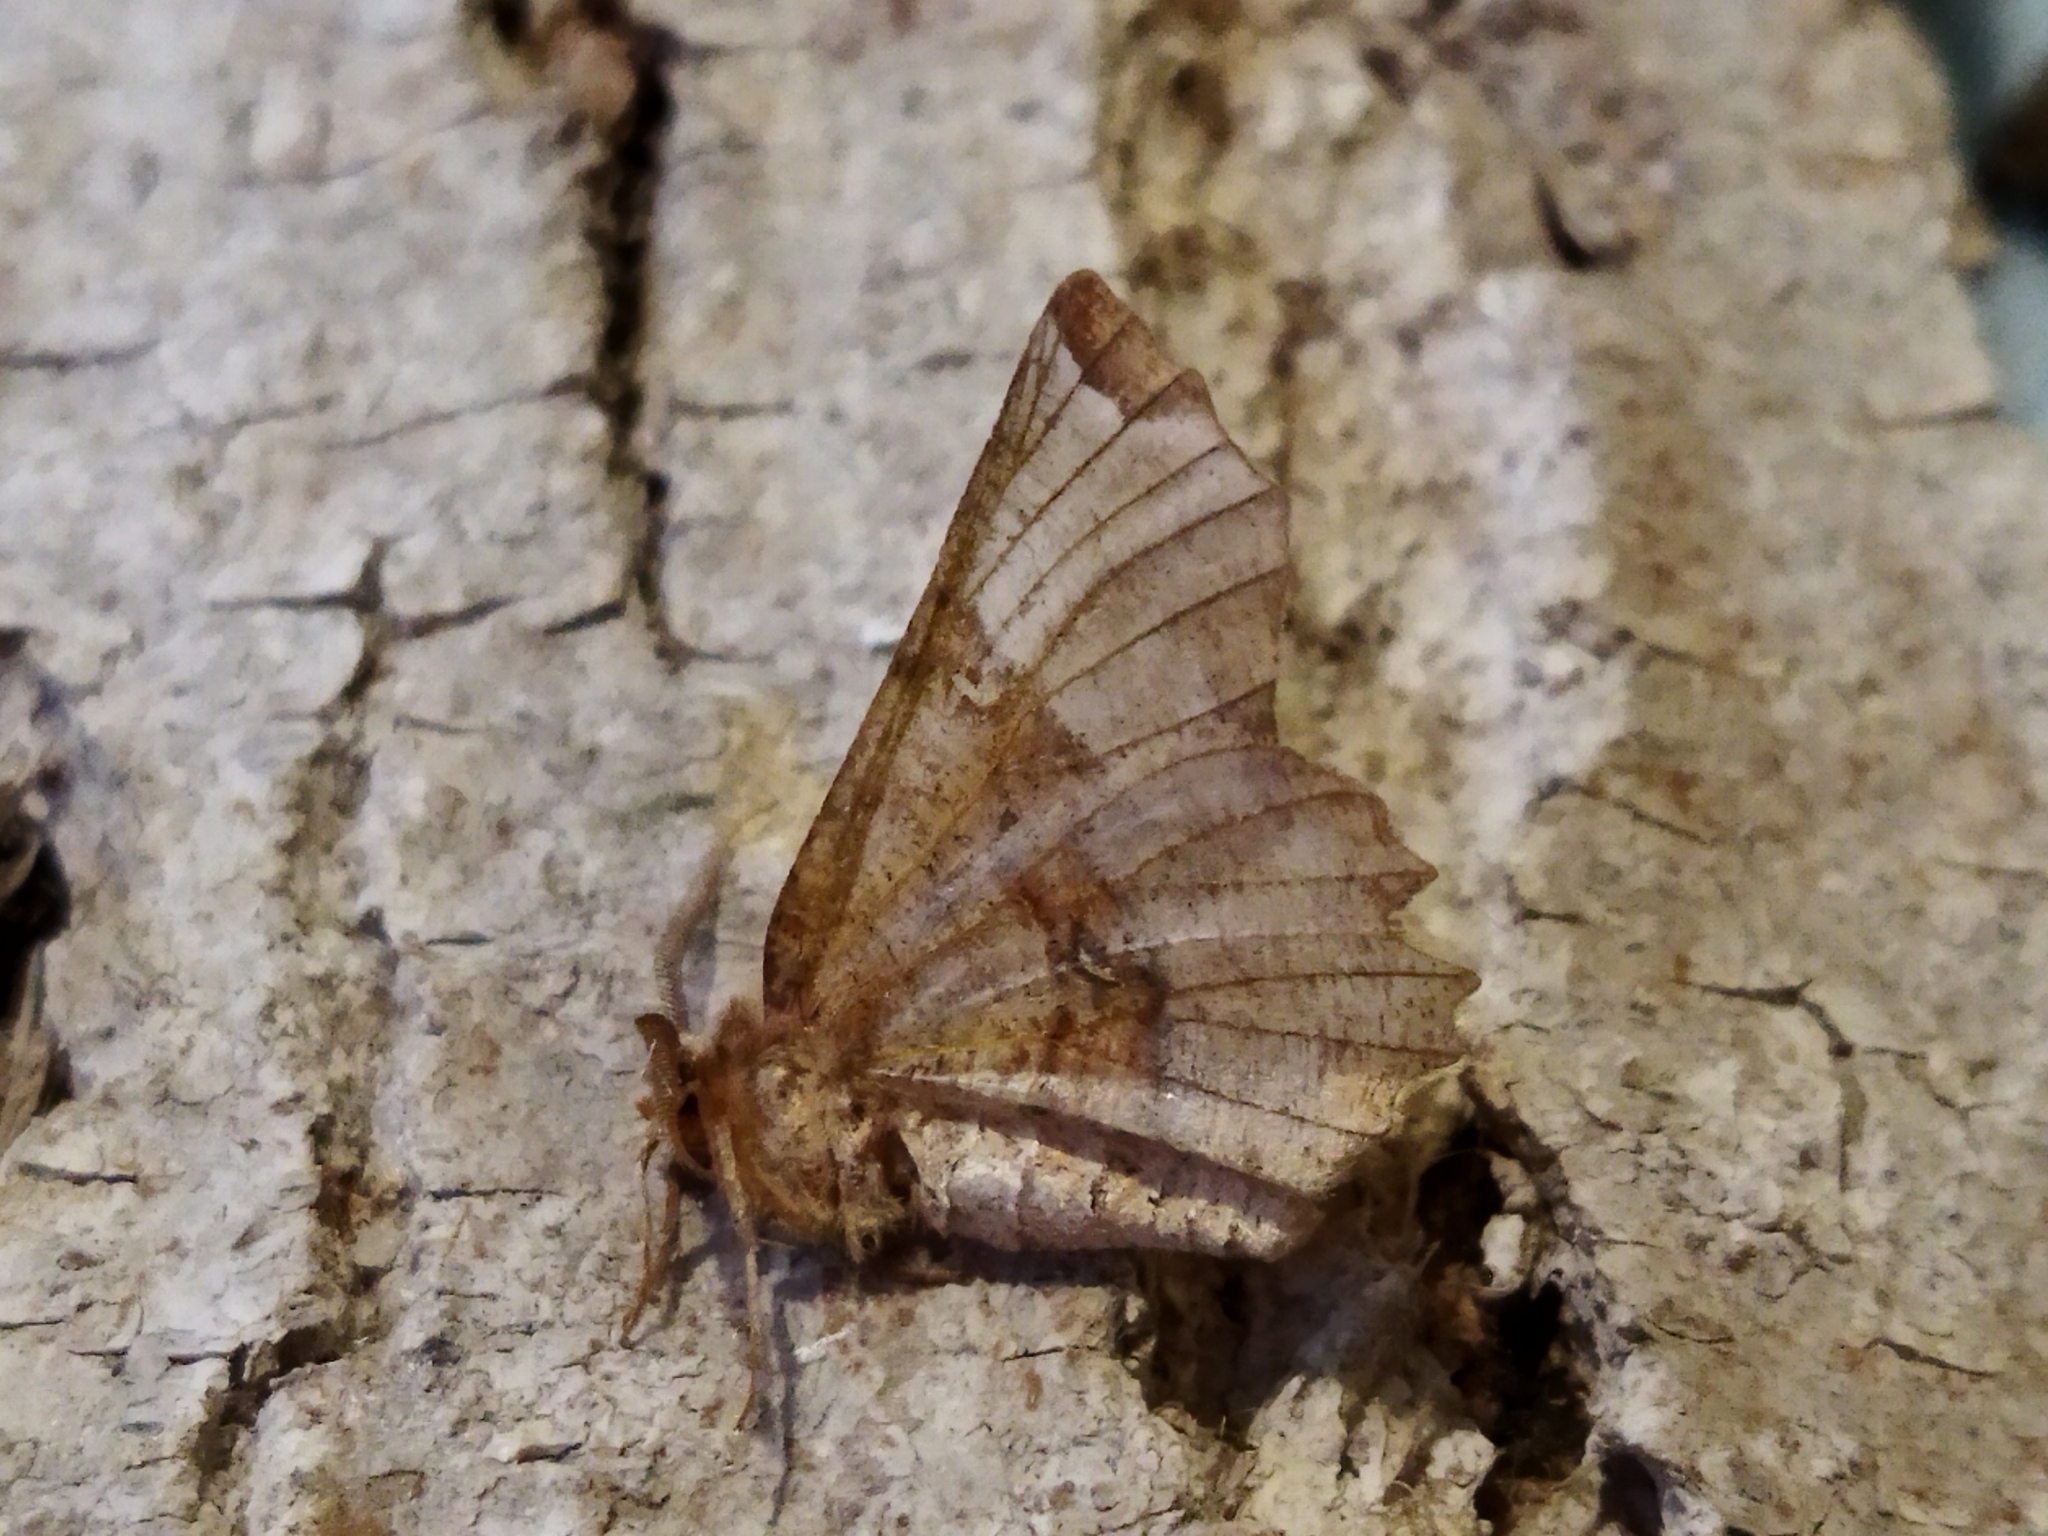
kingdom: Animalia
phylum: Arthropoda
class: Insecta
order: Lepidoptera
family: Geometridae
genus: Selenia
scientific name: Selenia lunularia
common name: Lunar thorn
